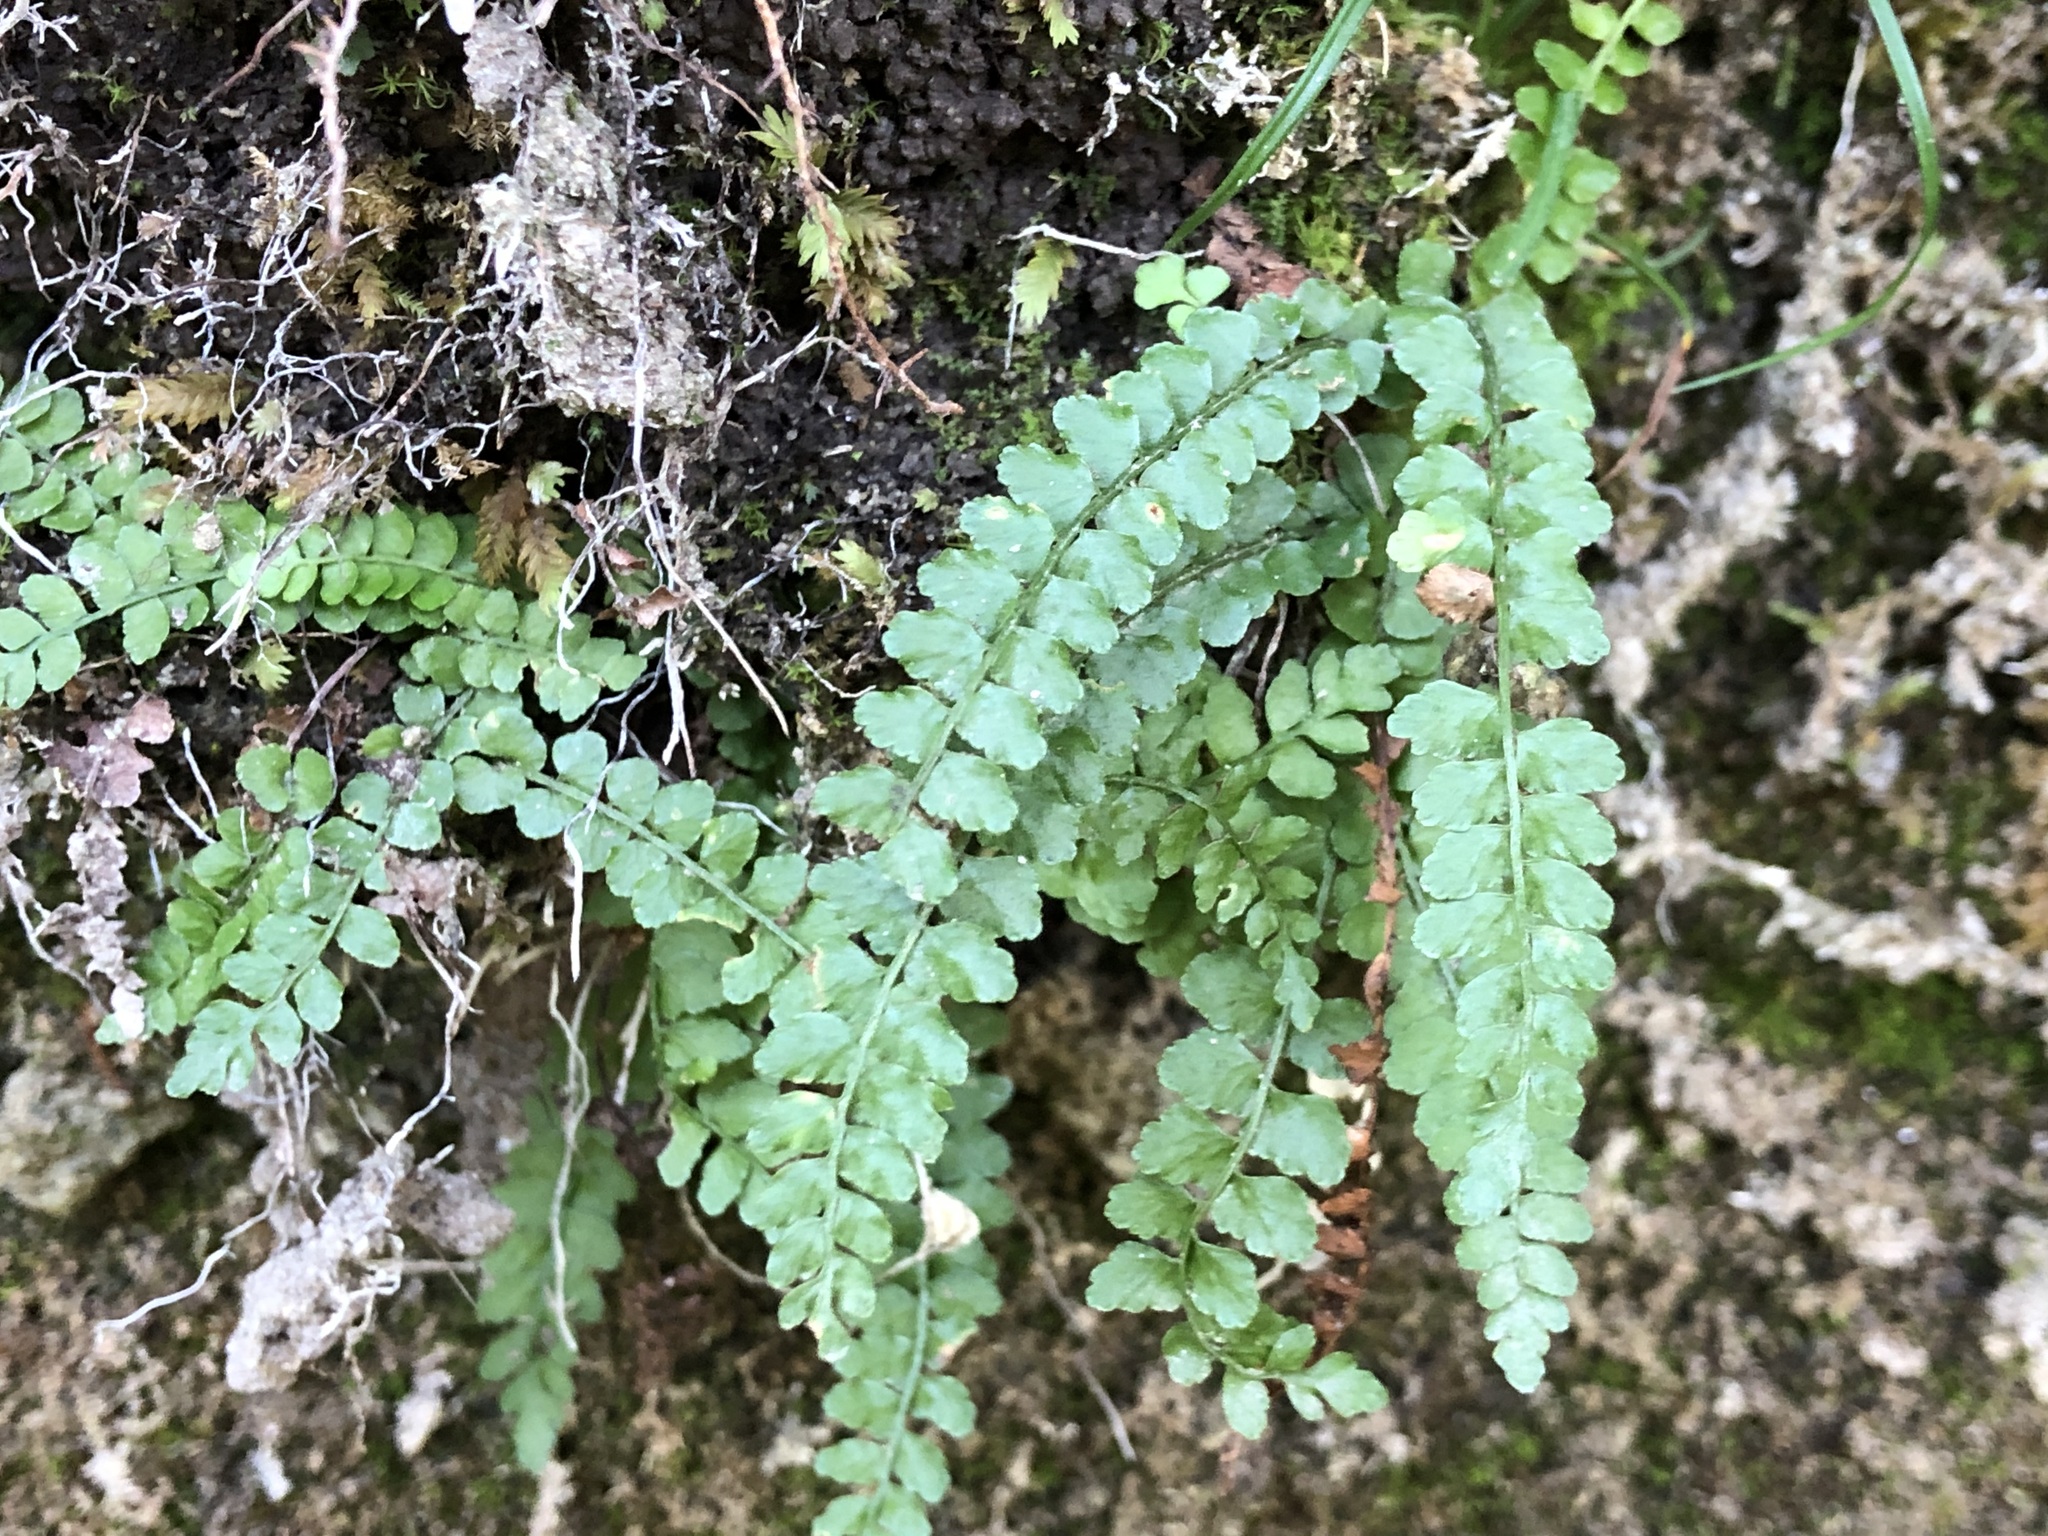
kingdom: Plantae
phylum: Tracheophyta
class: Polypodiopsida
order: Polypodiales
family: Aspleniaceae
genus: Asplenium
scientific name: Asplenium viride
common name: Green spleenwort
